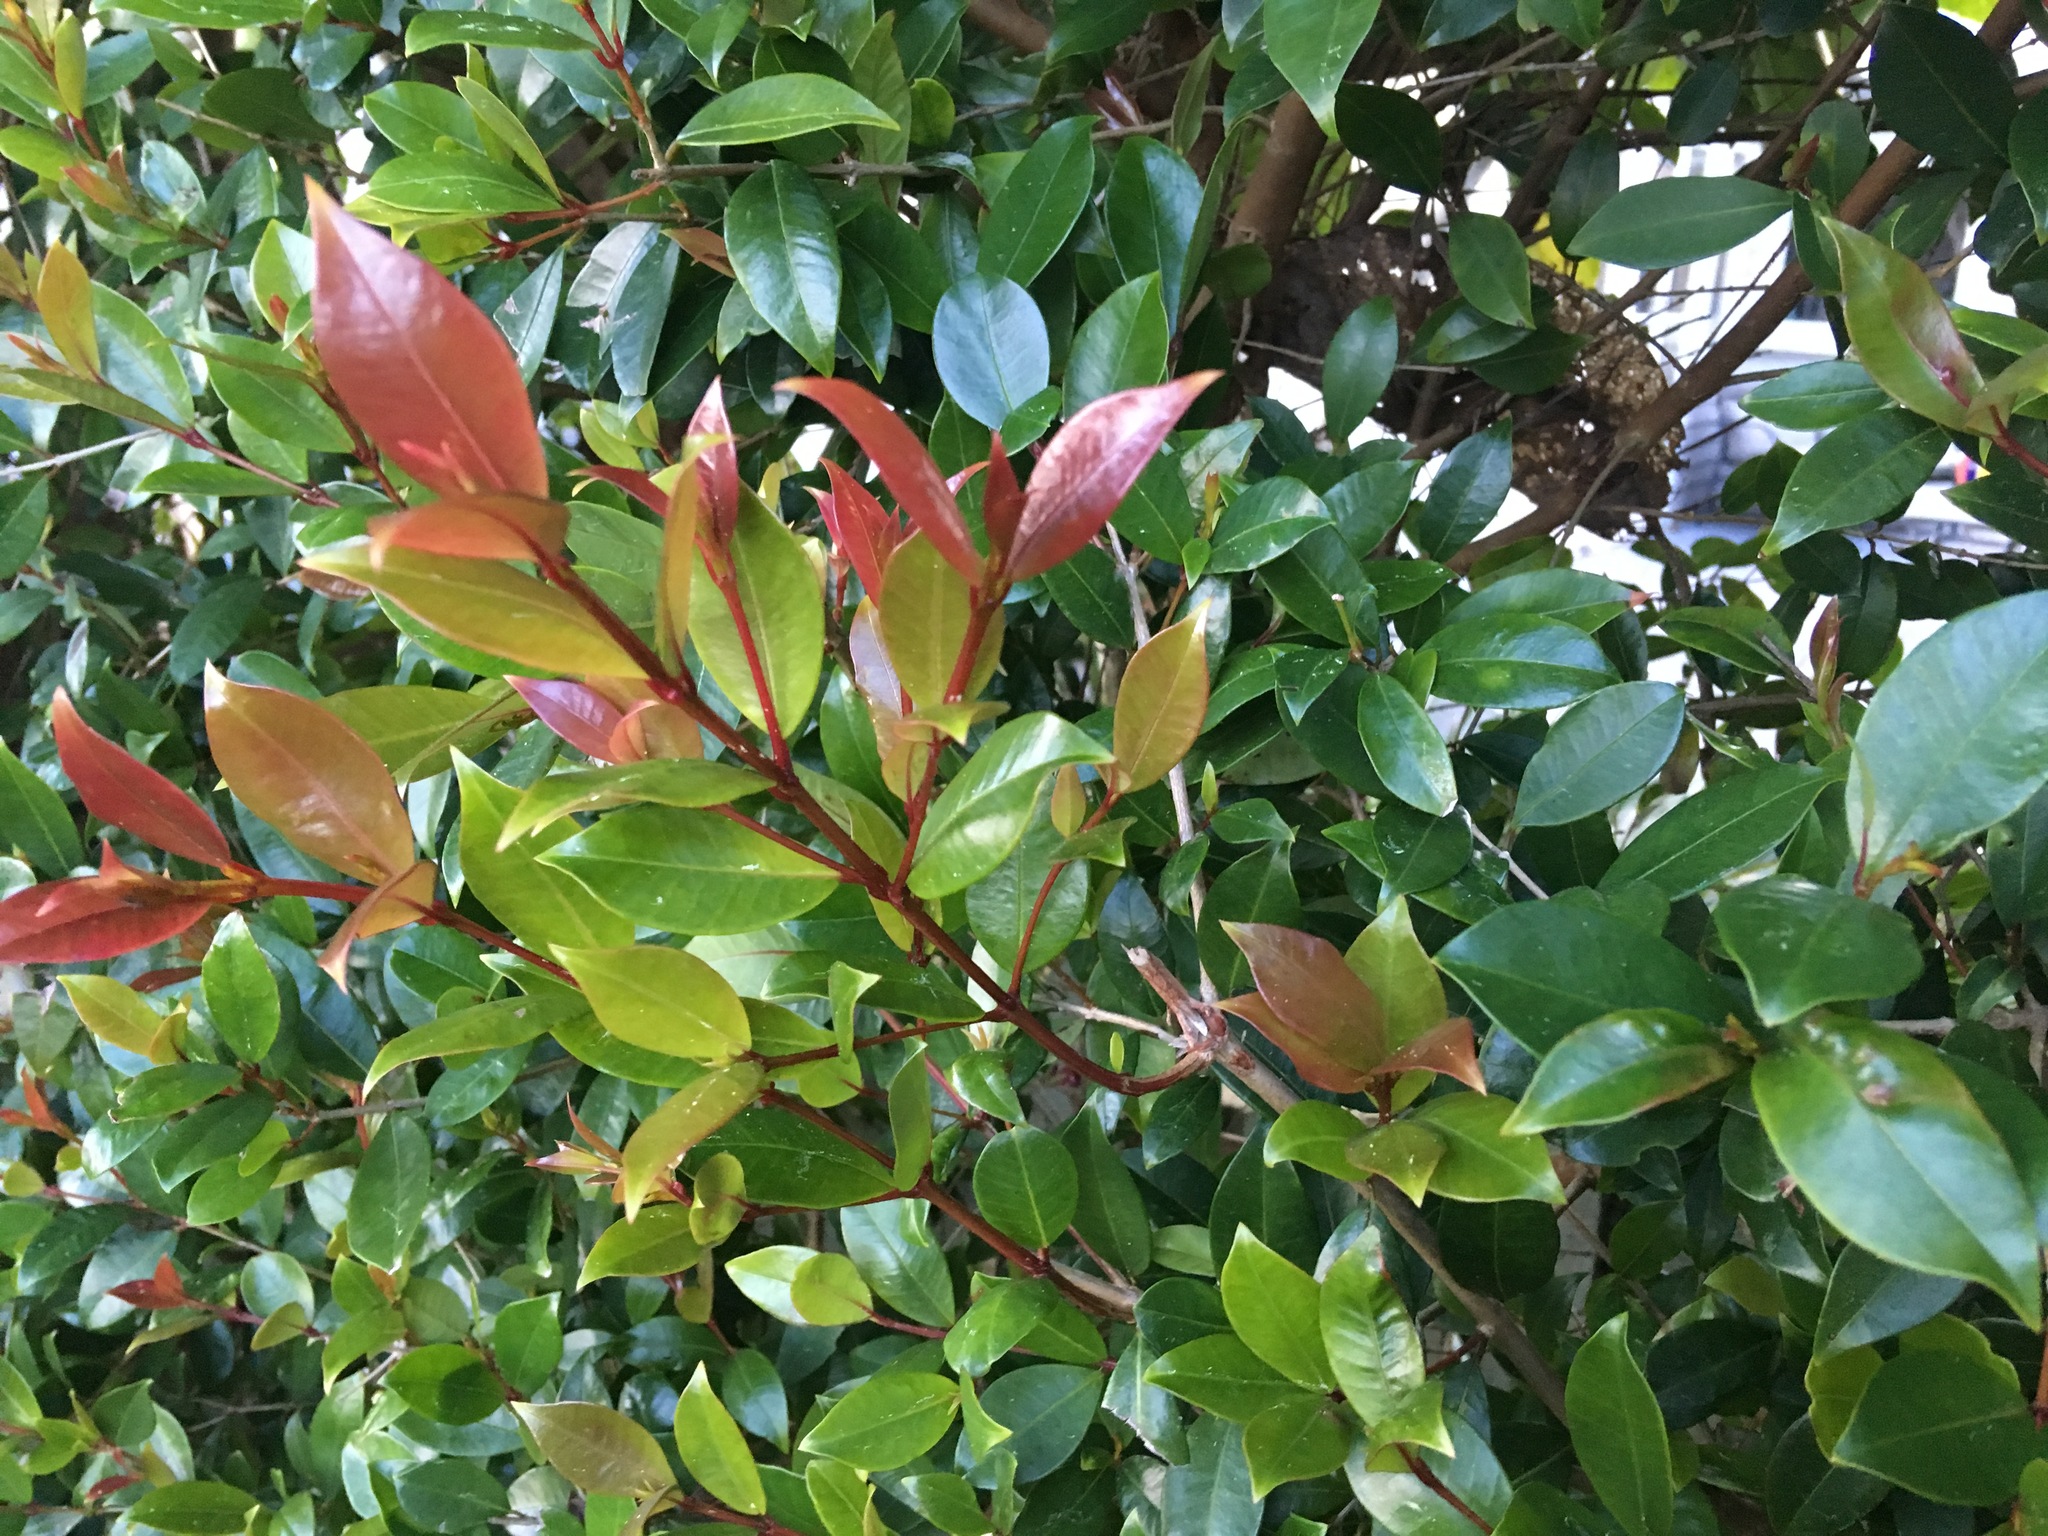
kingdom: Plantae
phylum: Tracheophyta
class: Magnoliopsida
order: Myrtales
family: Myrtaceae
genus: Syzygium
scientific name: Syzygium smithii
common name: Lilly-pilly
